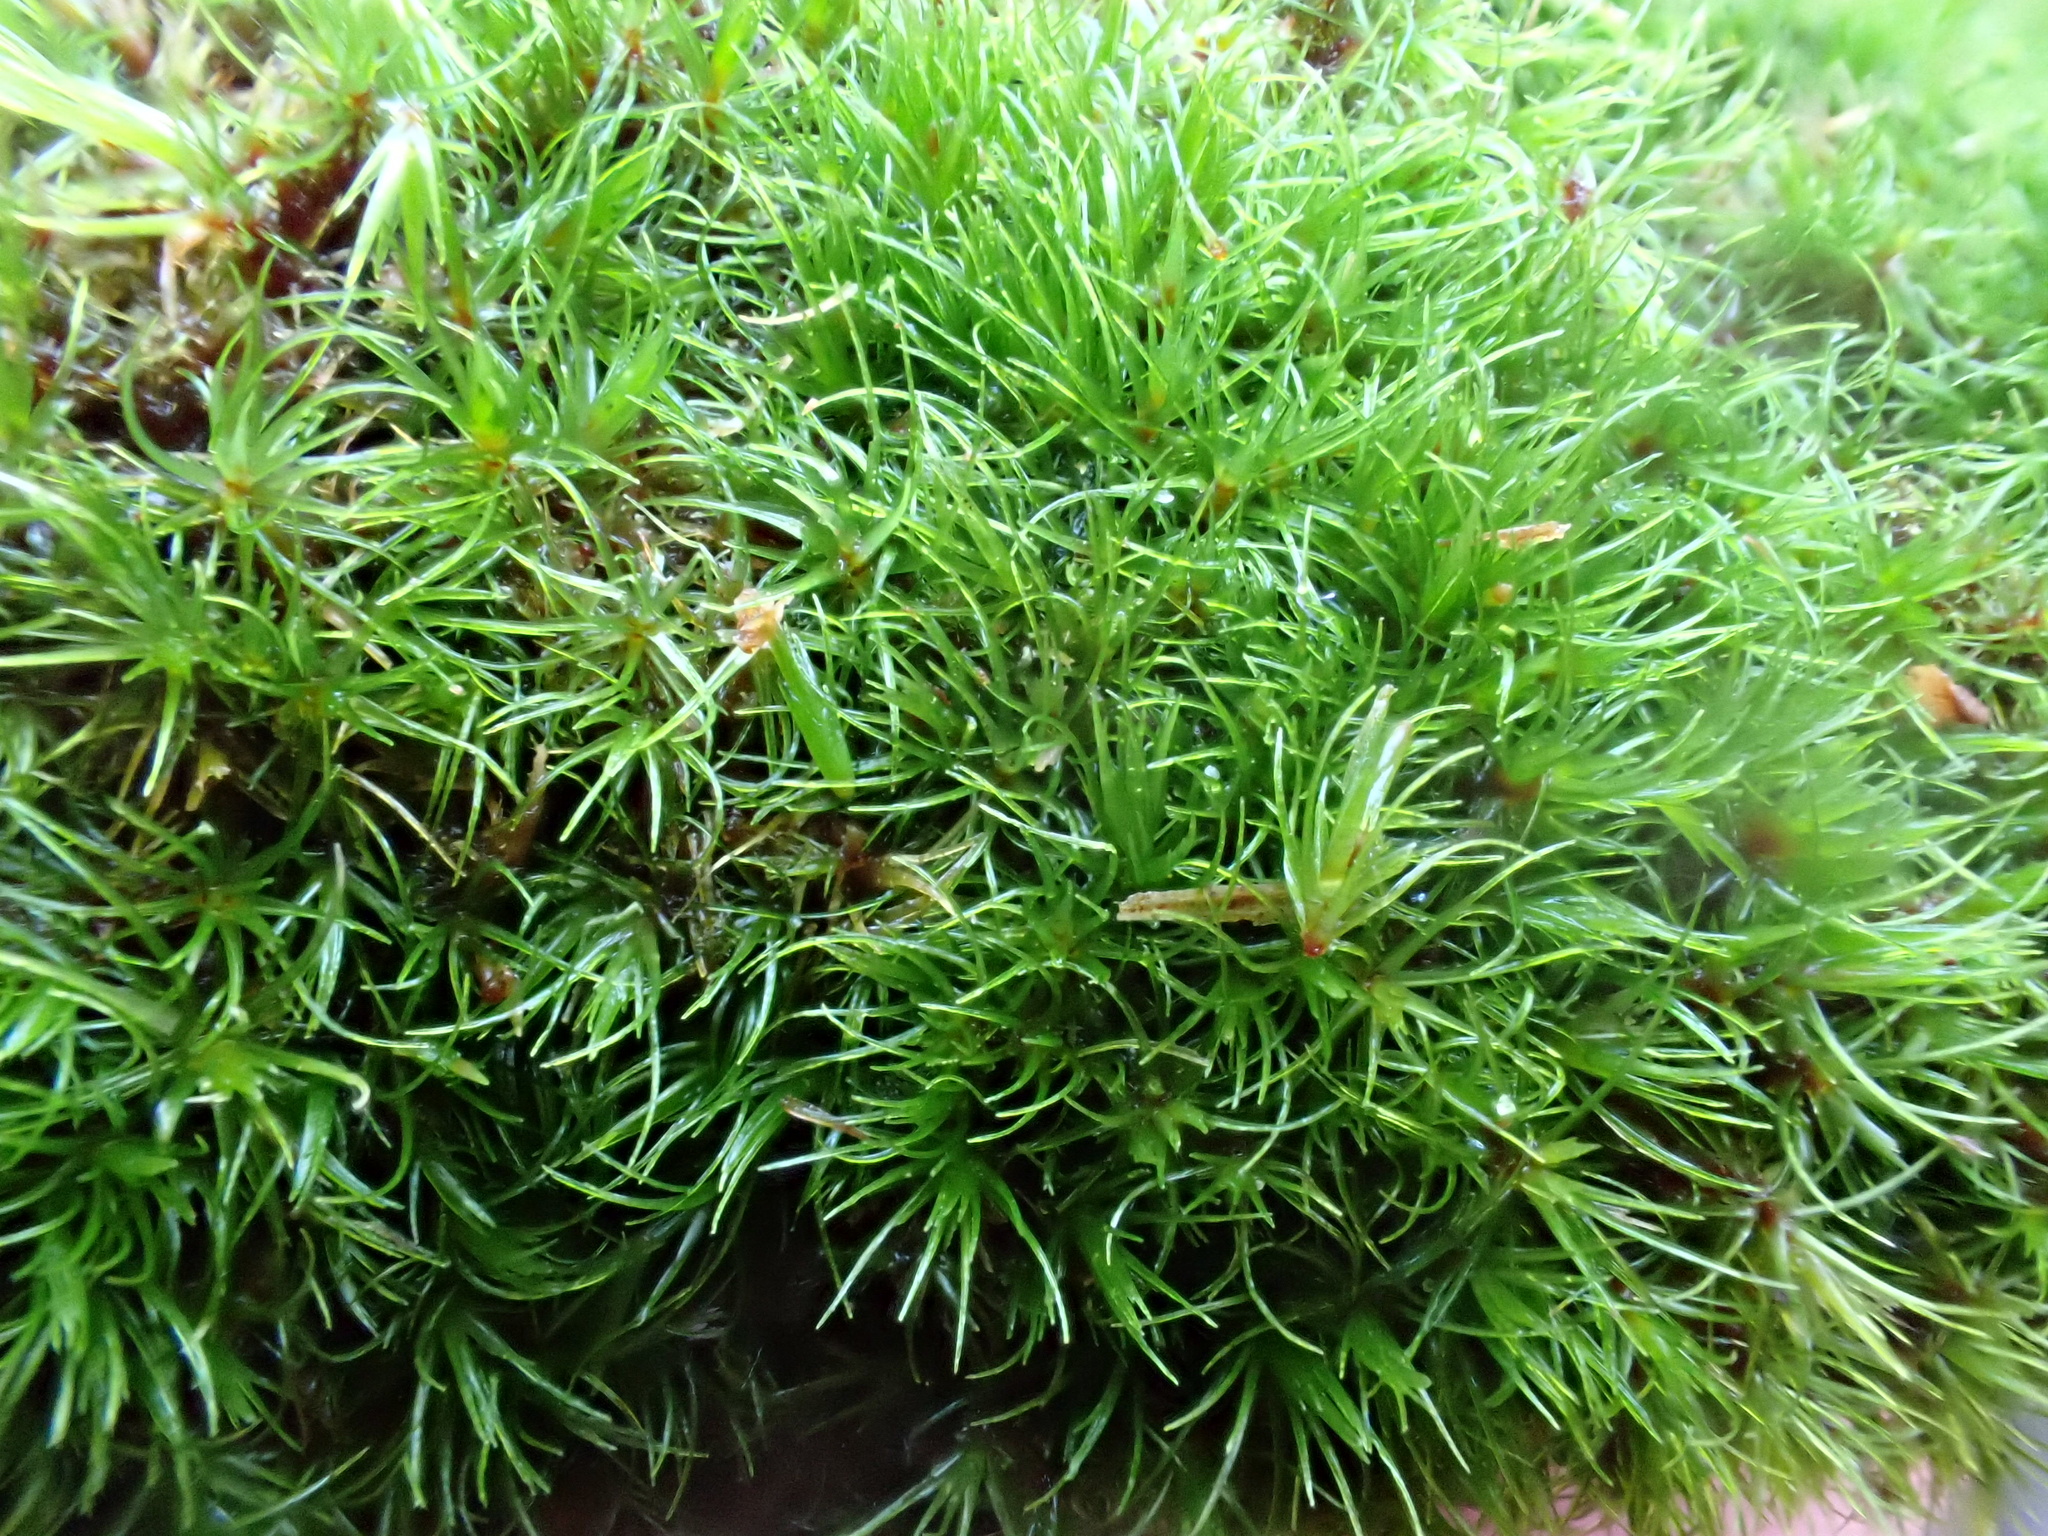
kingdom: Plantae
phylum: Bryophyta
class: Bryopsida
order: Dicranales
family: Leucobryaceae
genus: Campylopus
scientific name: Campylopus flexuosus
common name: Rusty swan-neck moss
